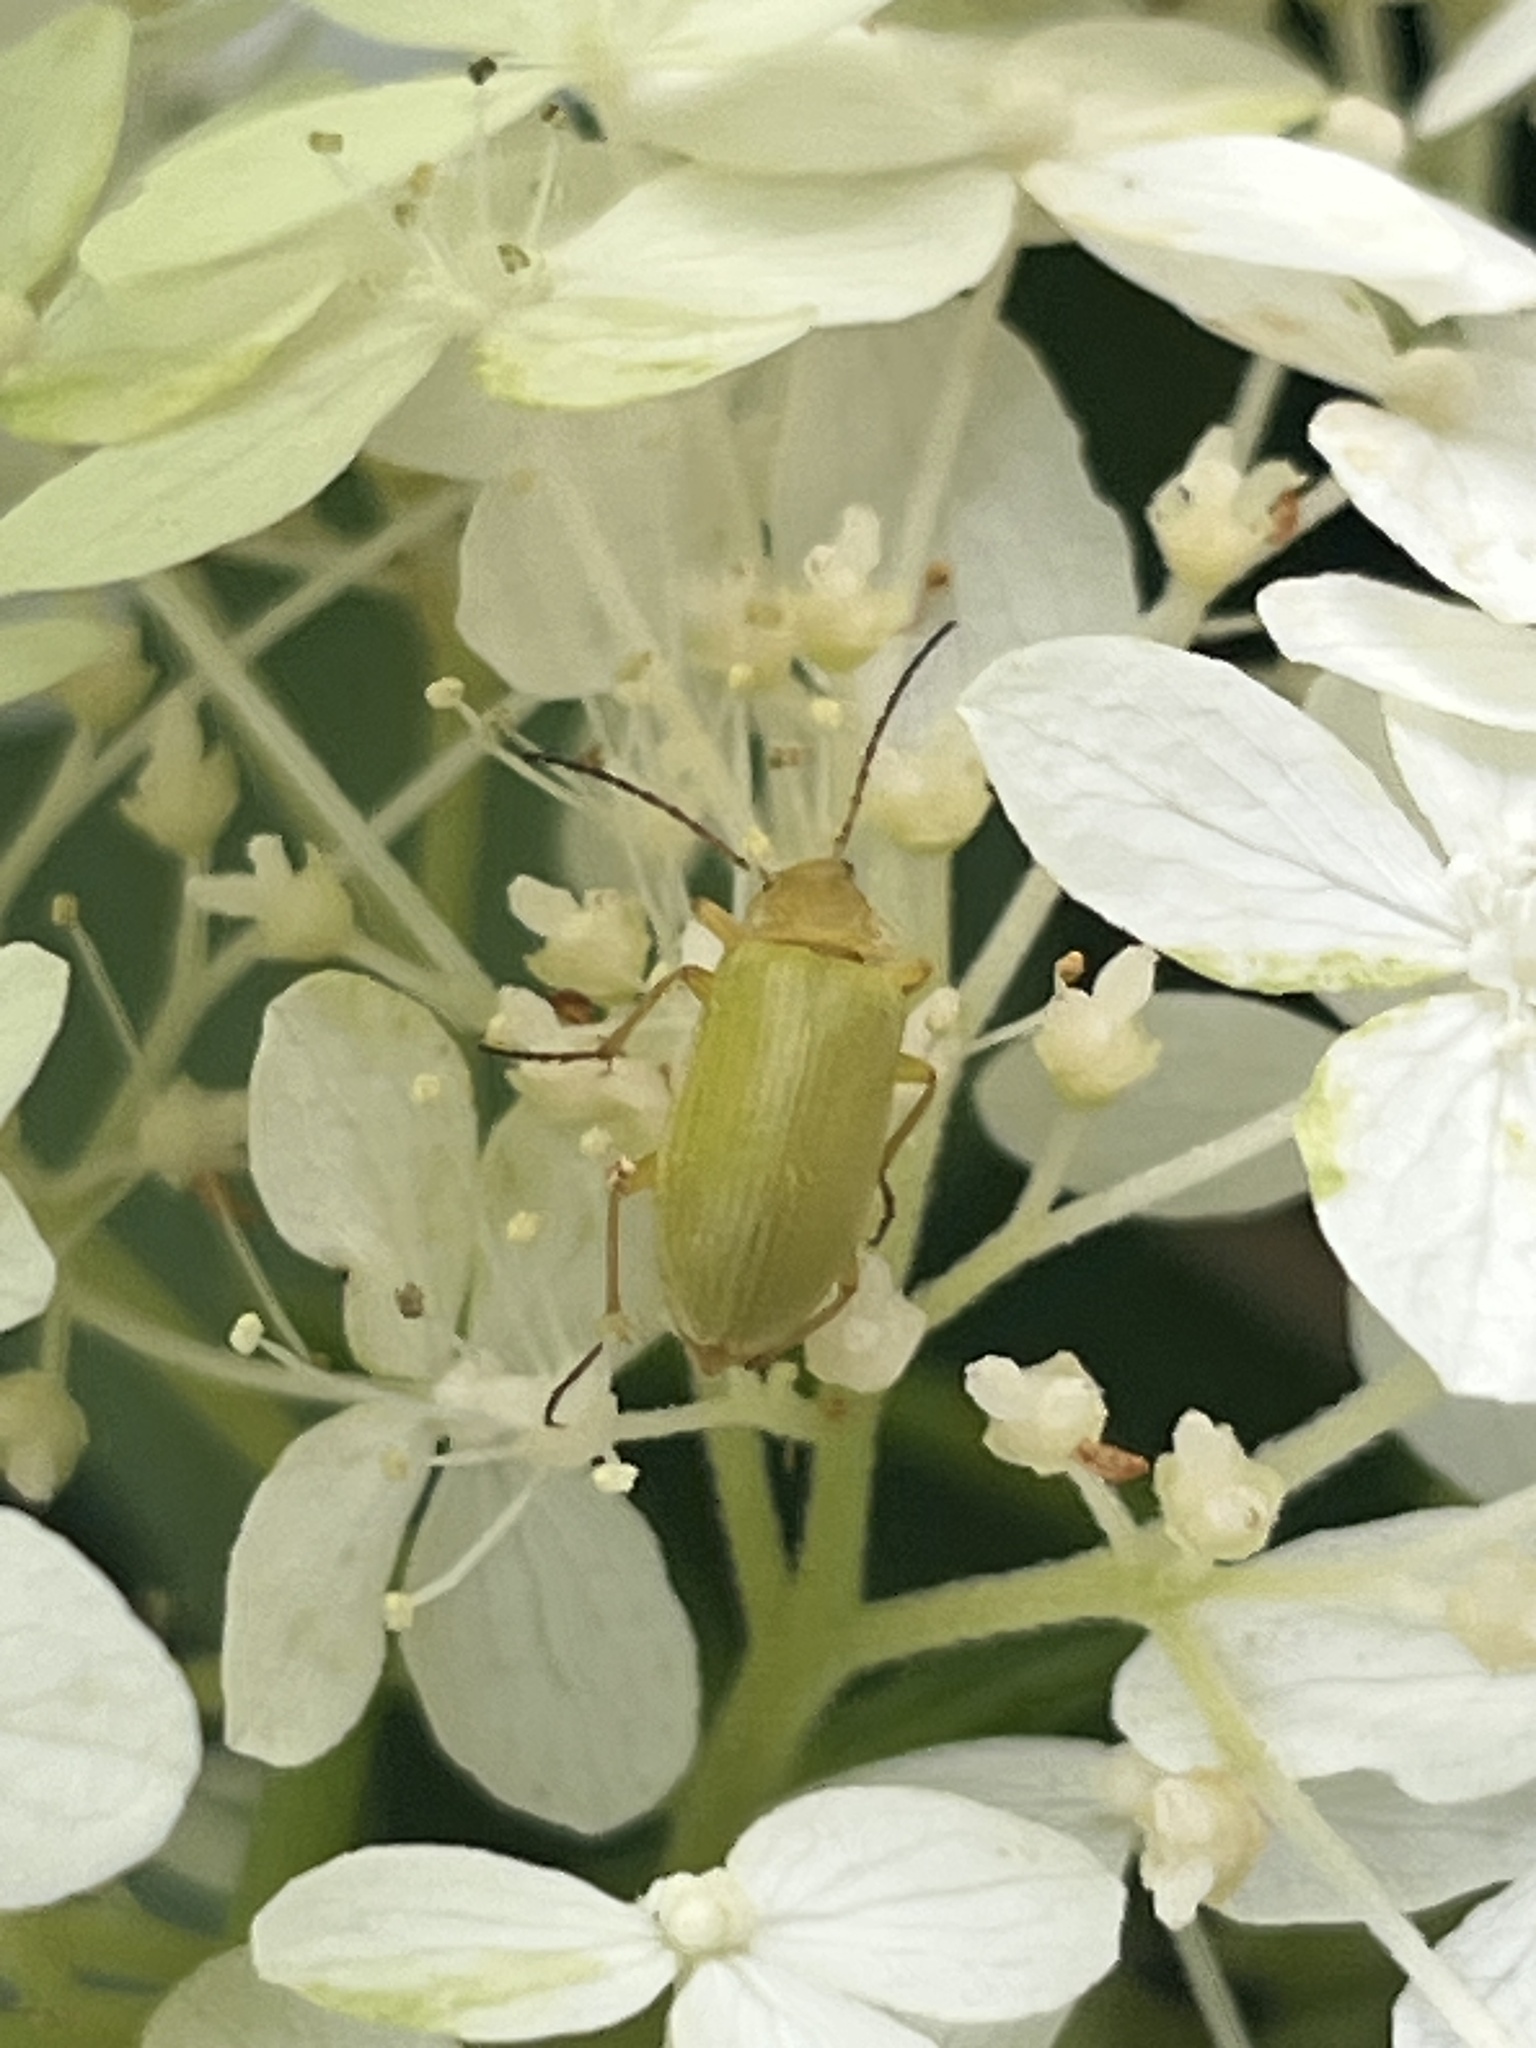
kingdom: Animalia
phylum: Arthropoda
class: Insecta
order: Coleoptera
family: Tenebrionidae
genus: Cteniopus
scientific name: Cteniopus sulphureus
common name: Sulphur beetle
